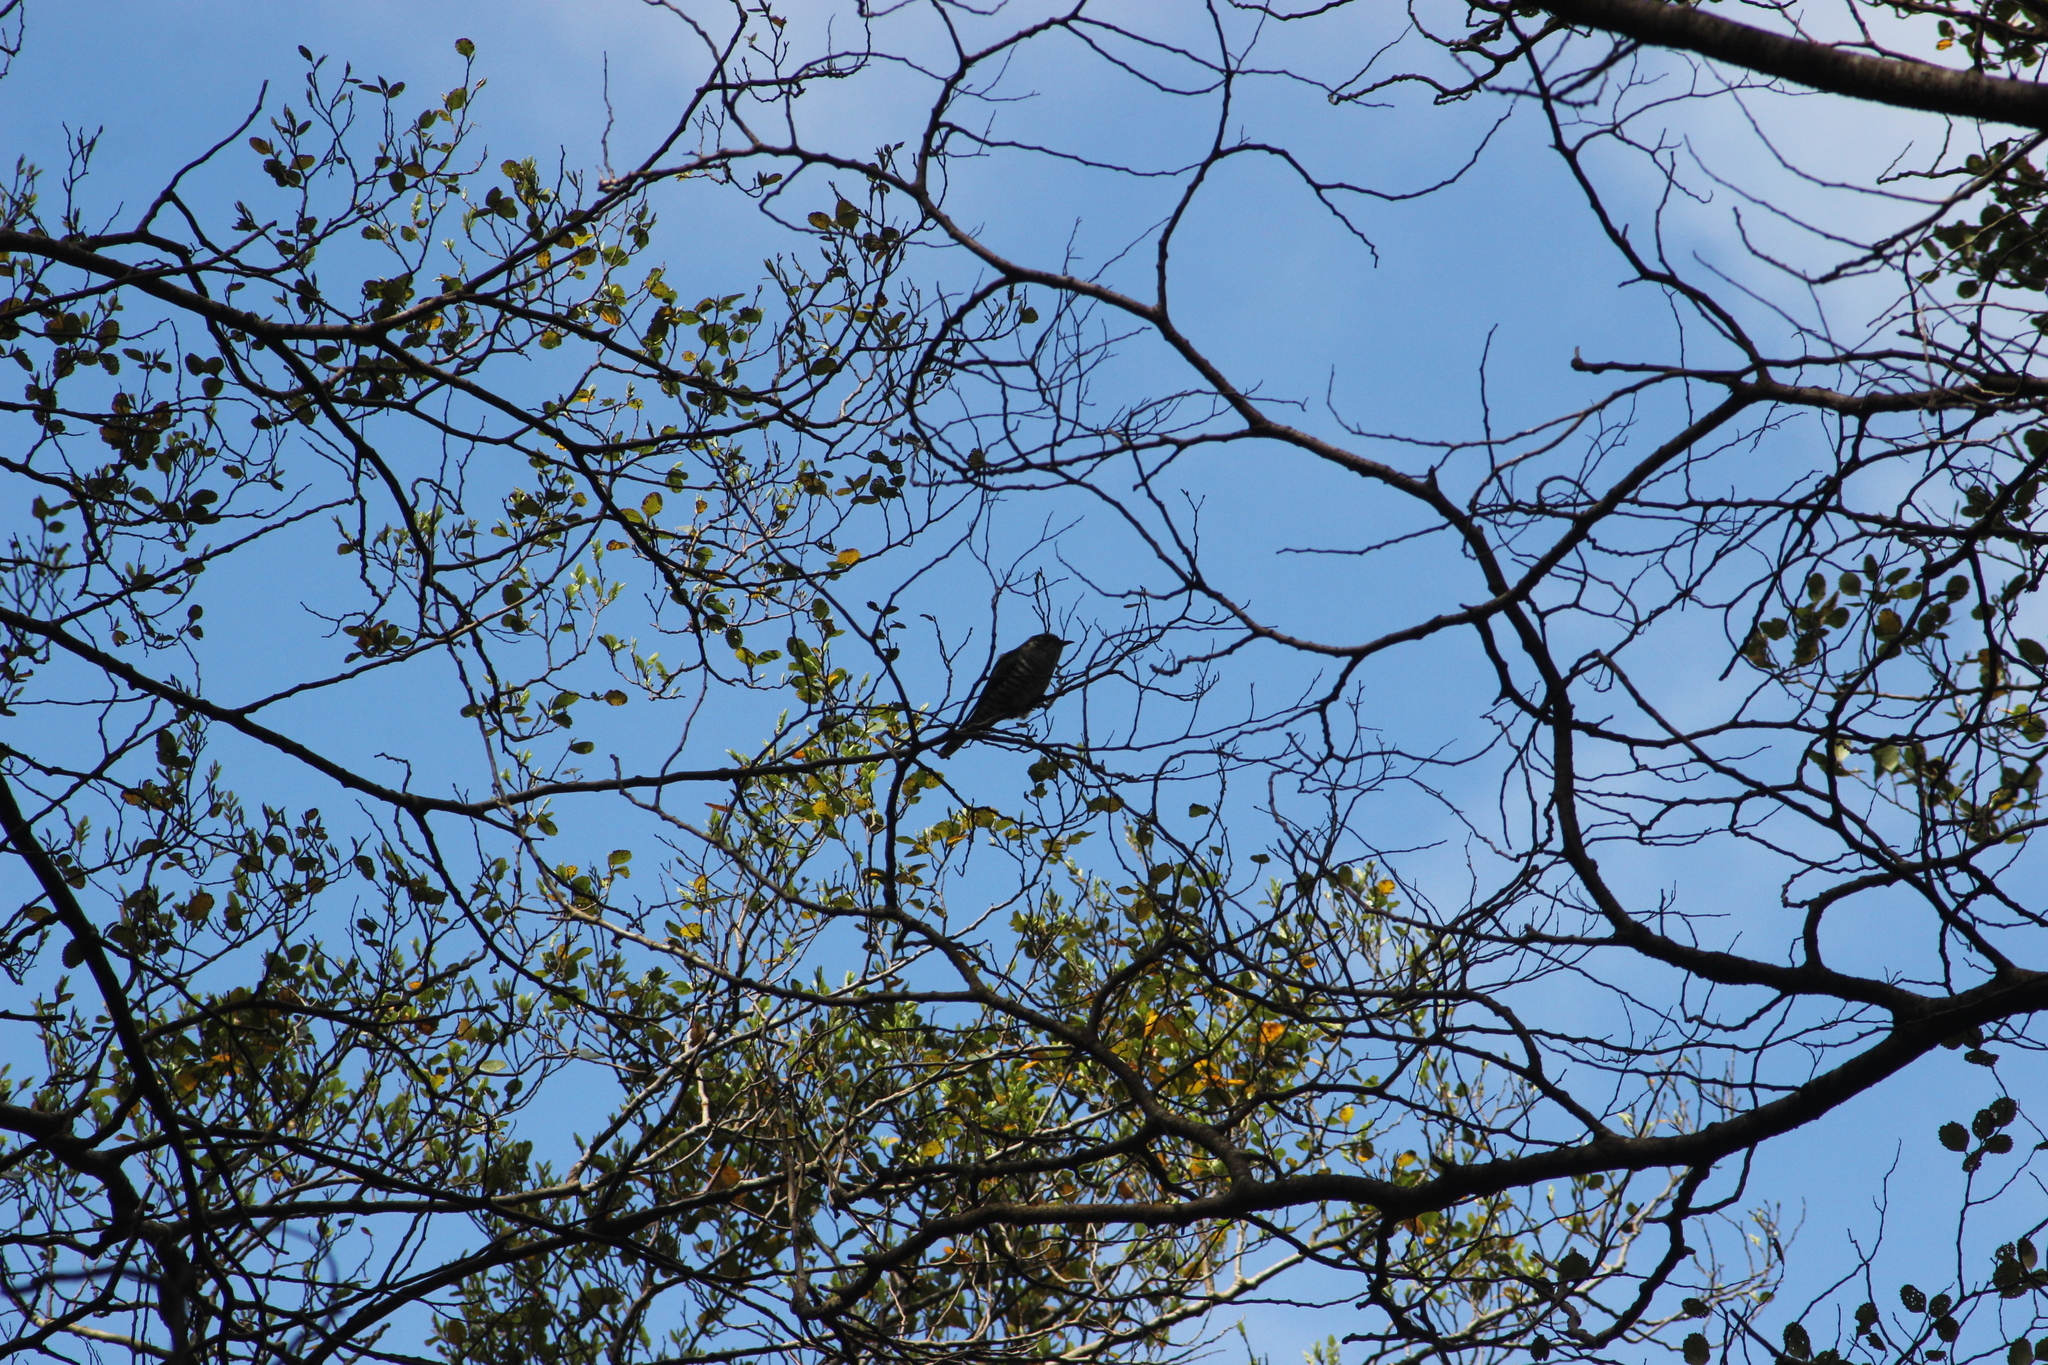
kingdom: Animalia
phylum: Chordata
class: Aves
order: Cuculiformes
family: Cuculidae
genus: Chrysococcyx
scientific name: Chrysococcyx lucidus
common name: Shining bronze cuckoo
